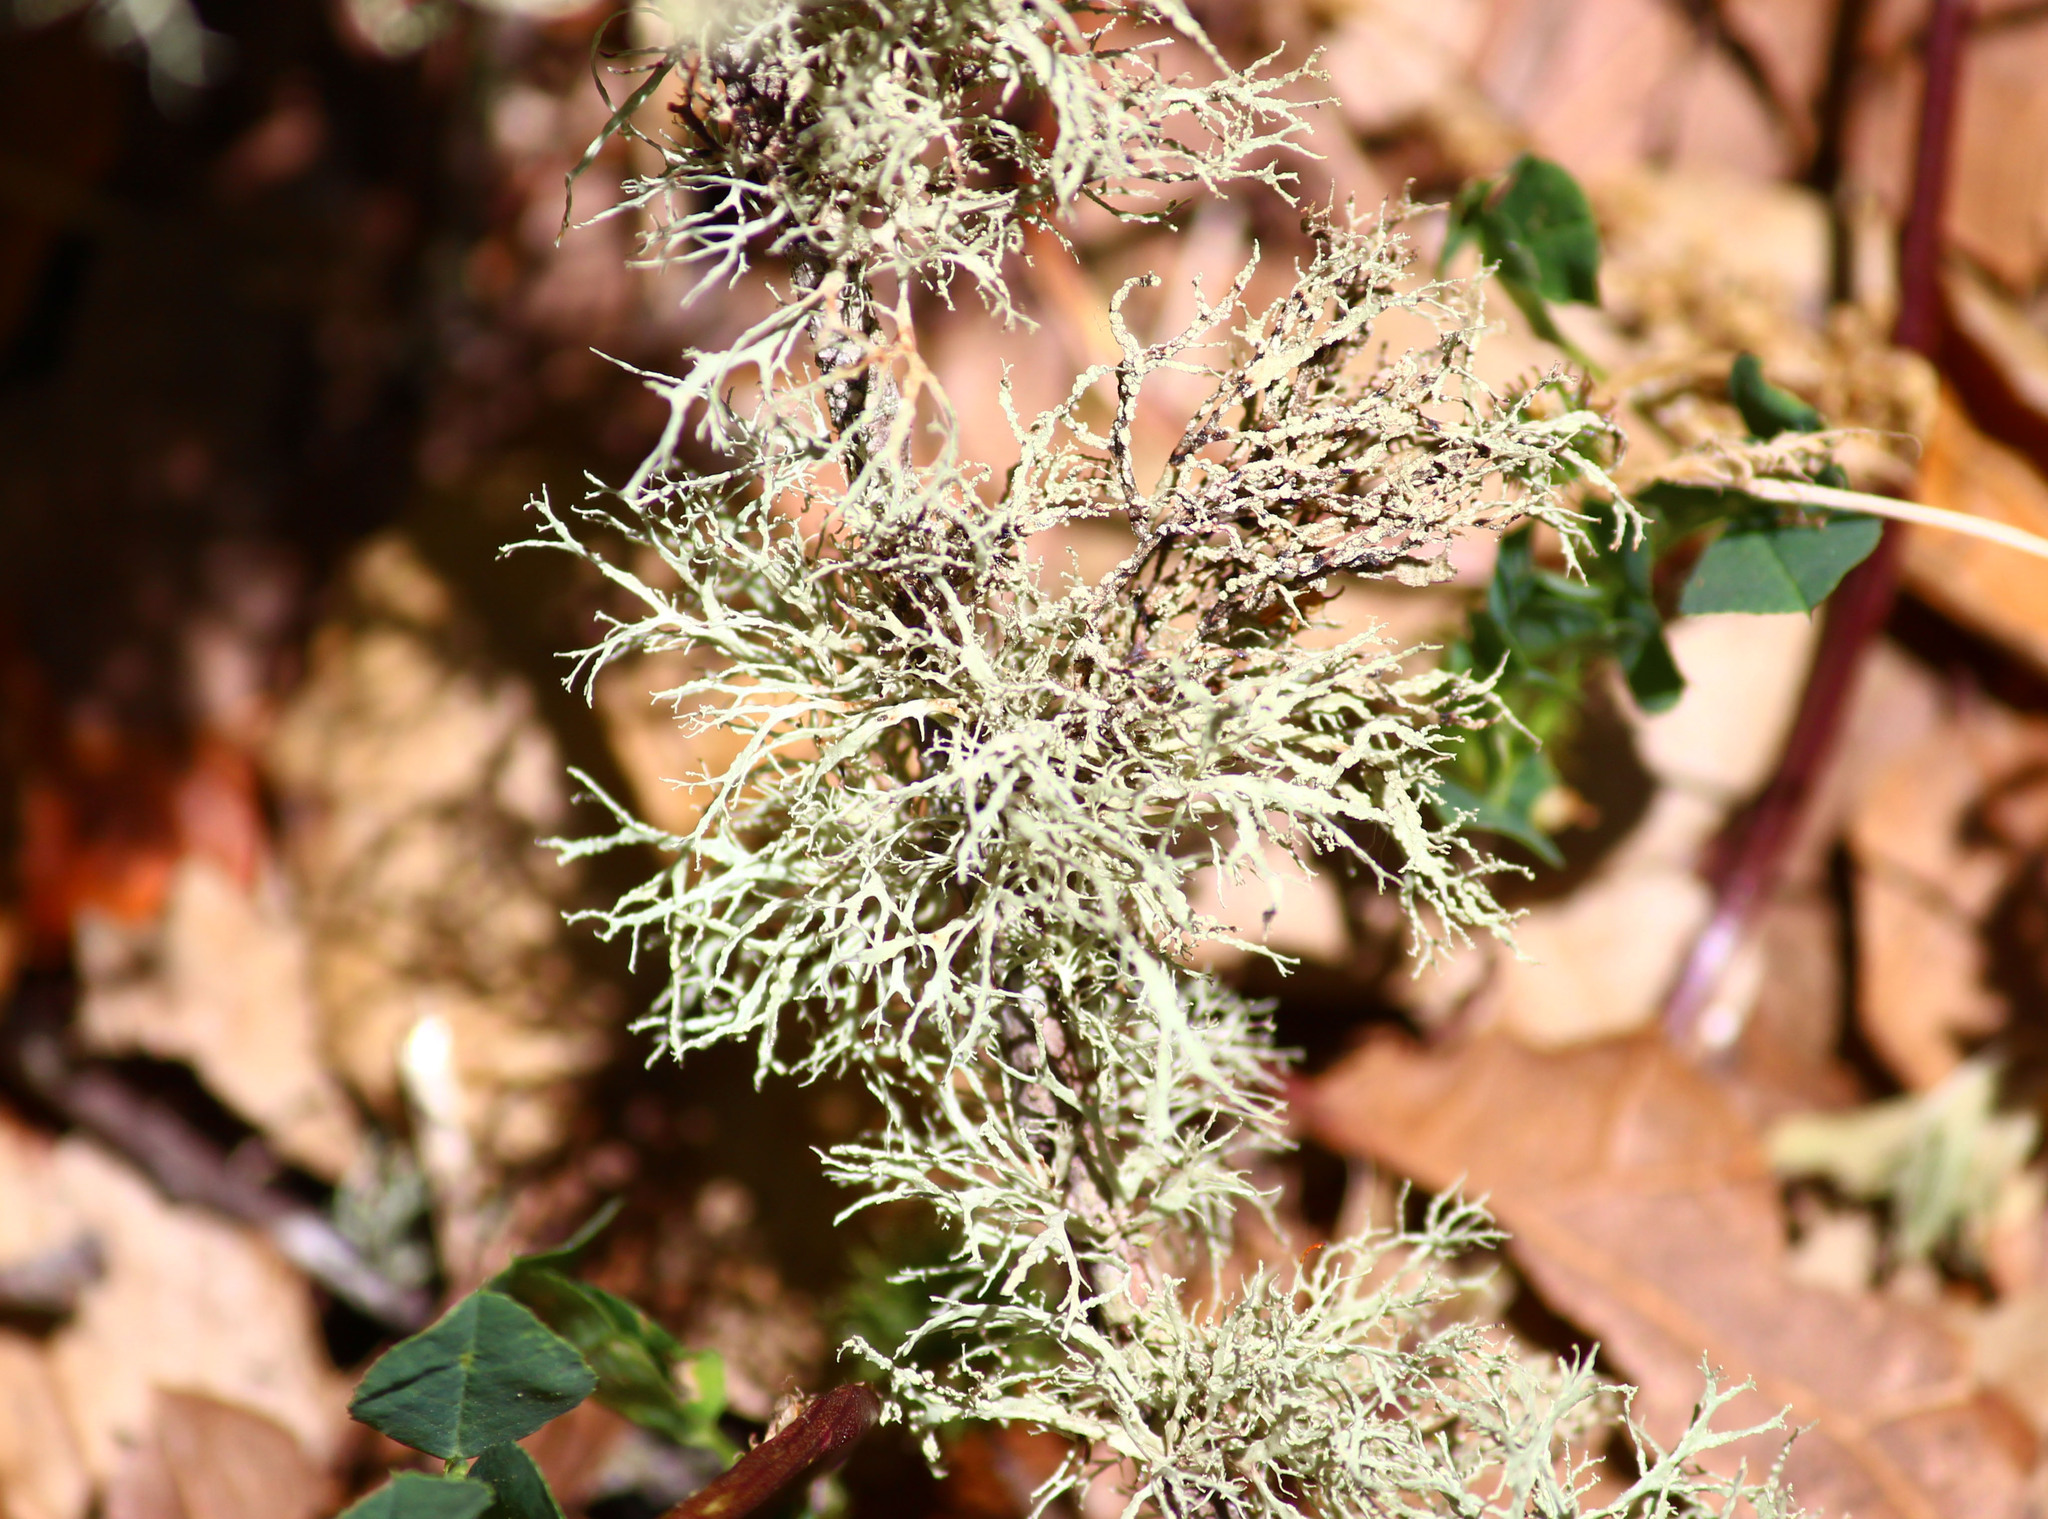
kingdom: Fungi
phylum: Ascomycota
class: Lecanoromycetes
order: Lecanorales
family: Ramalinaceae
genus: Ramalina
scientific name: Ramalina farinacea
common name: Farinose cartilage lichen
